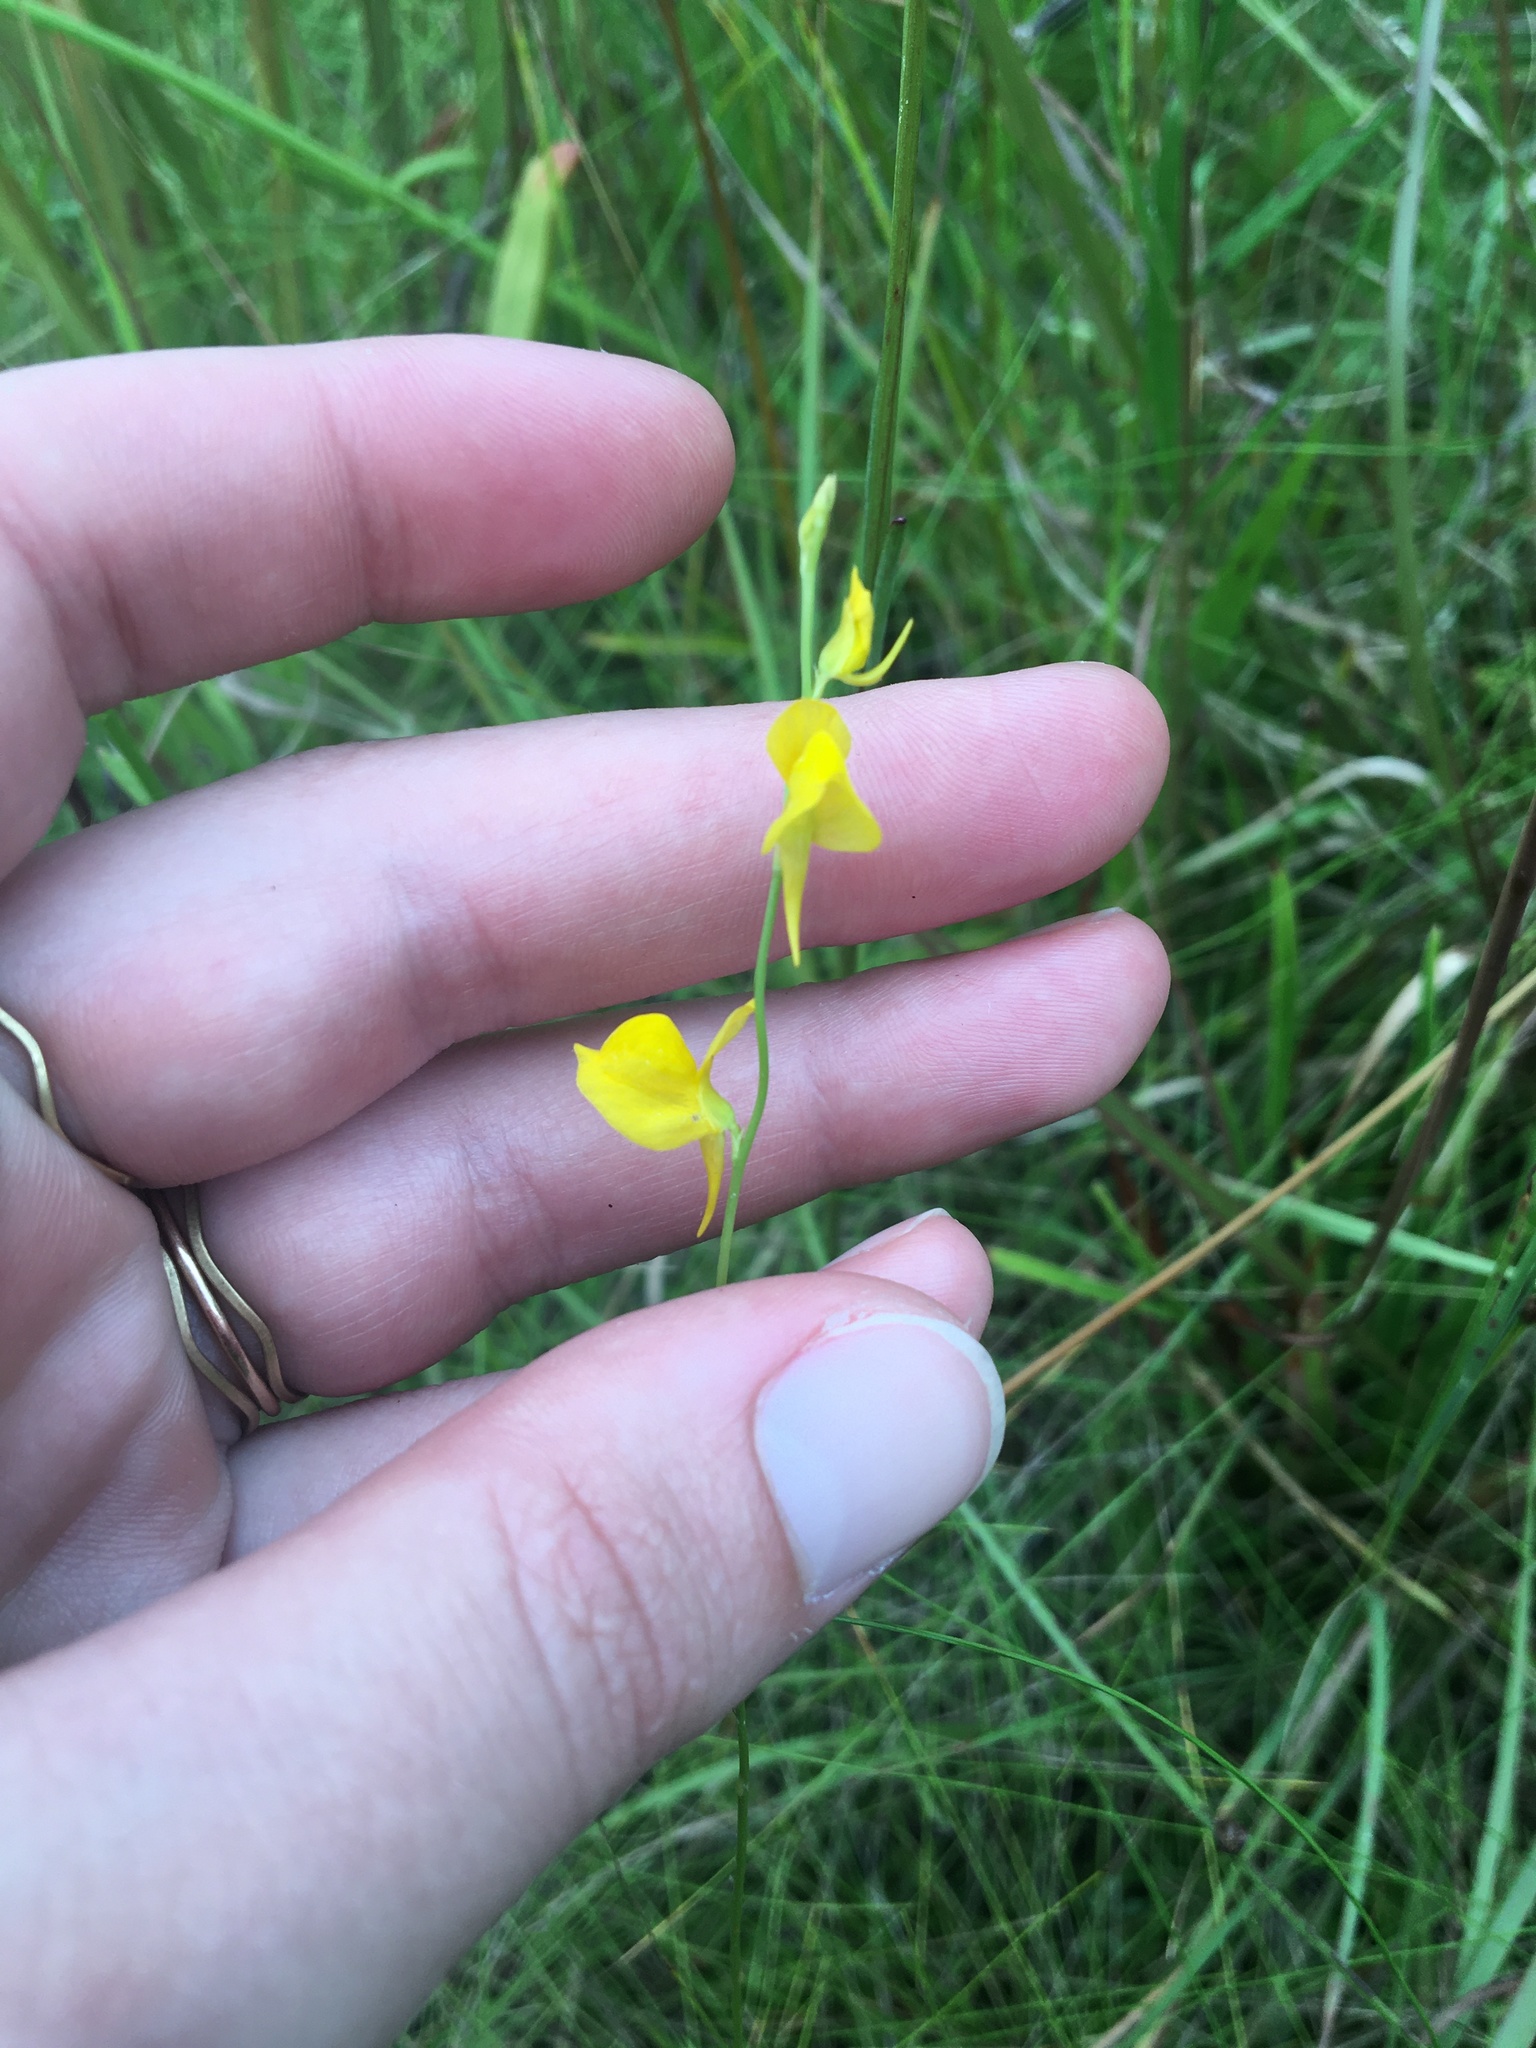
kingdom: Plantae
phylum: Tracheophyta
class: Magnoliopsida
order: Lamiales
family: Lentibulariaceae
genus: Utricularia
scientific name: Utricularia juncea
